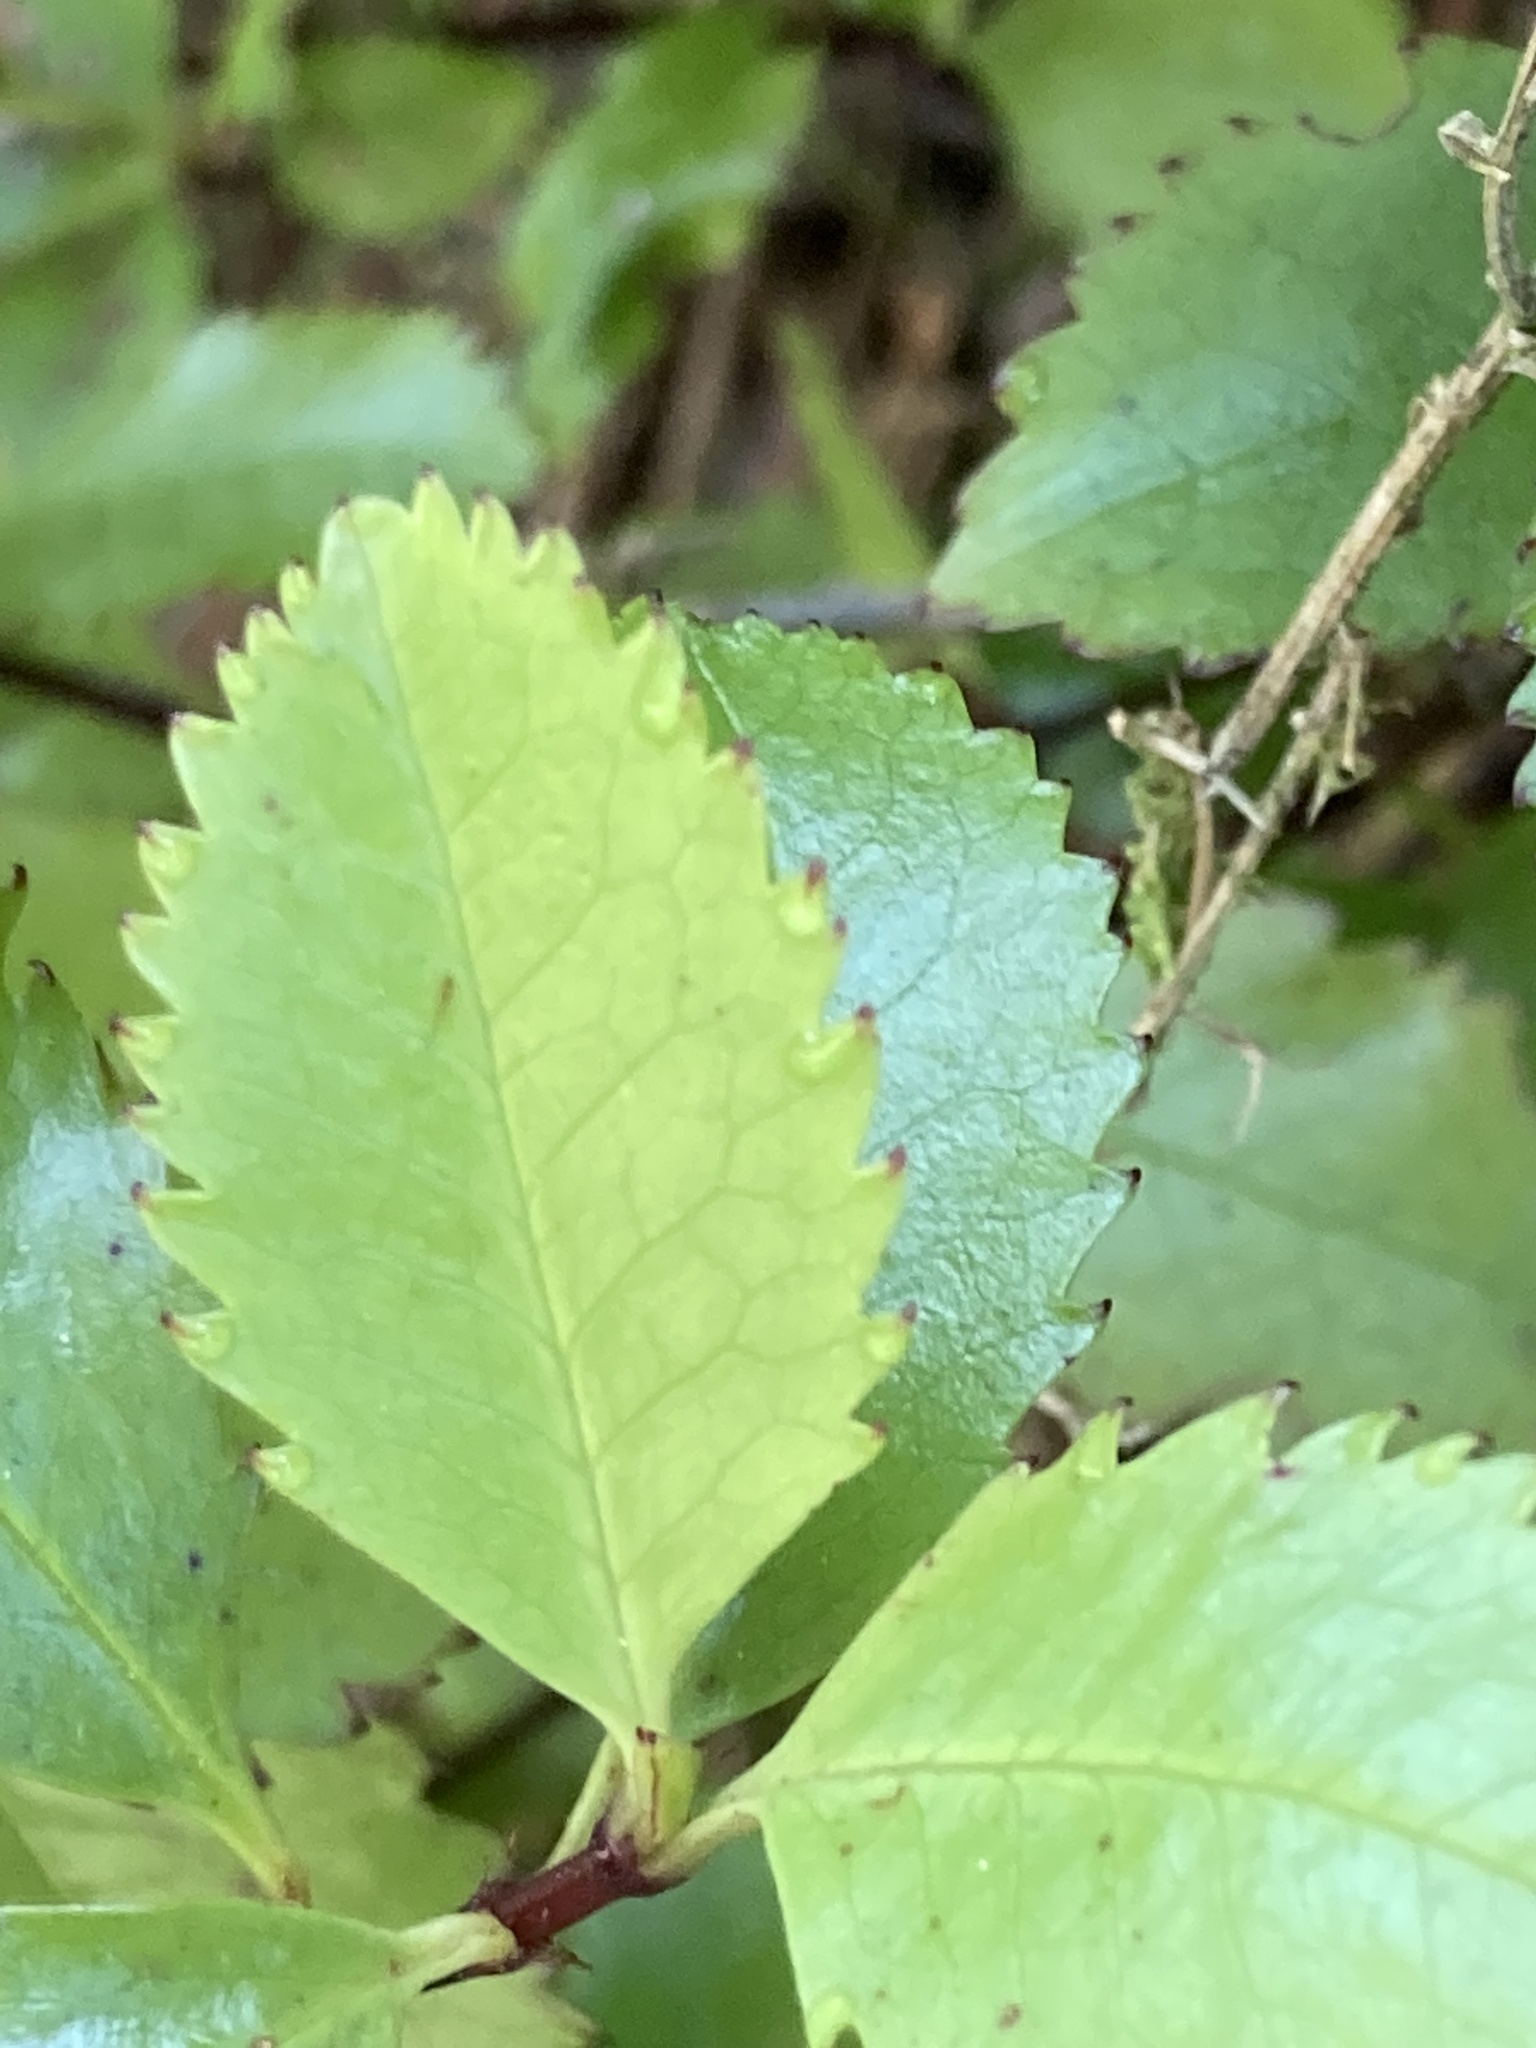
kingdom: Plantae
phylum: Tracheophyta
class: Magnoliopsida
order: Chloranthales
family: Chloranthaceae
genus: Ascarina
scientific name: Ascarina lucida
